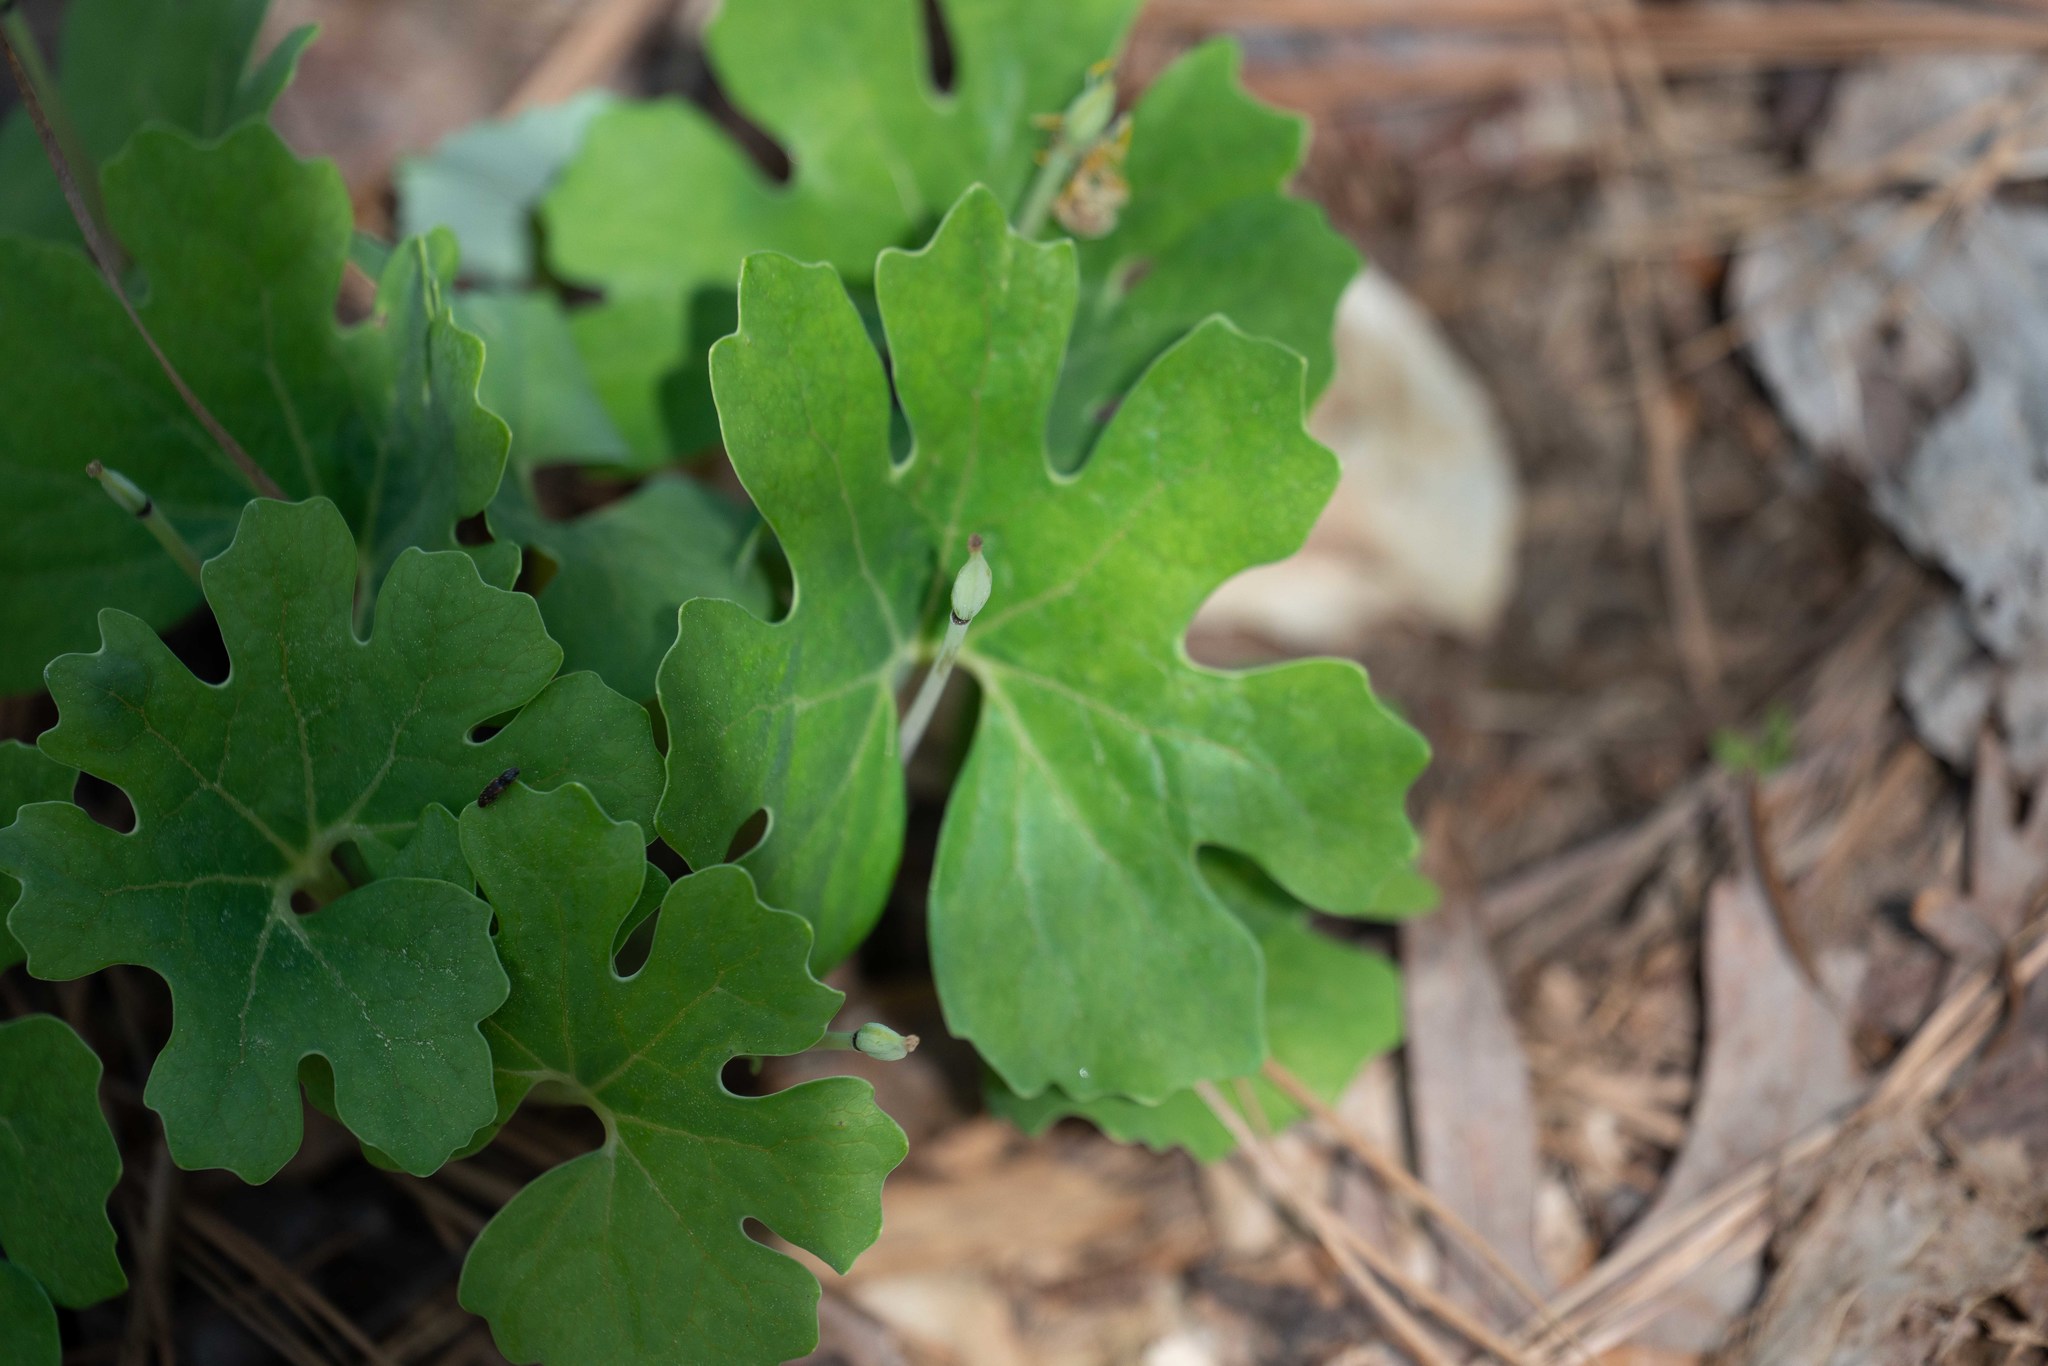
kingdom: Plantae
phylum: Tracheophyta
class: Magnoliopsida
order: Ranunculales
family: Papaveraceae
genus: Sanguinaria
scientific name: Sanguinaria canadensis
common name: Bloodroot
